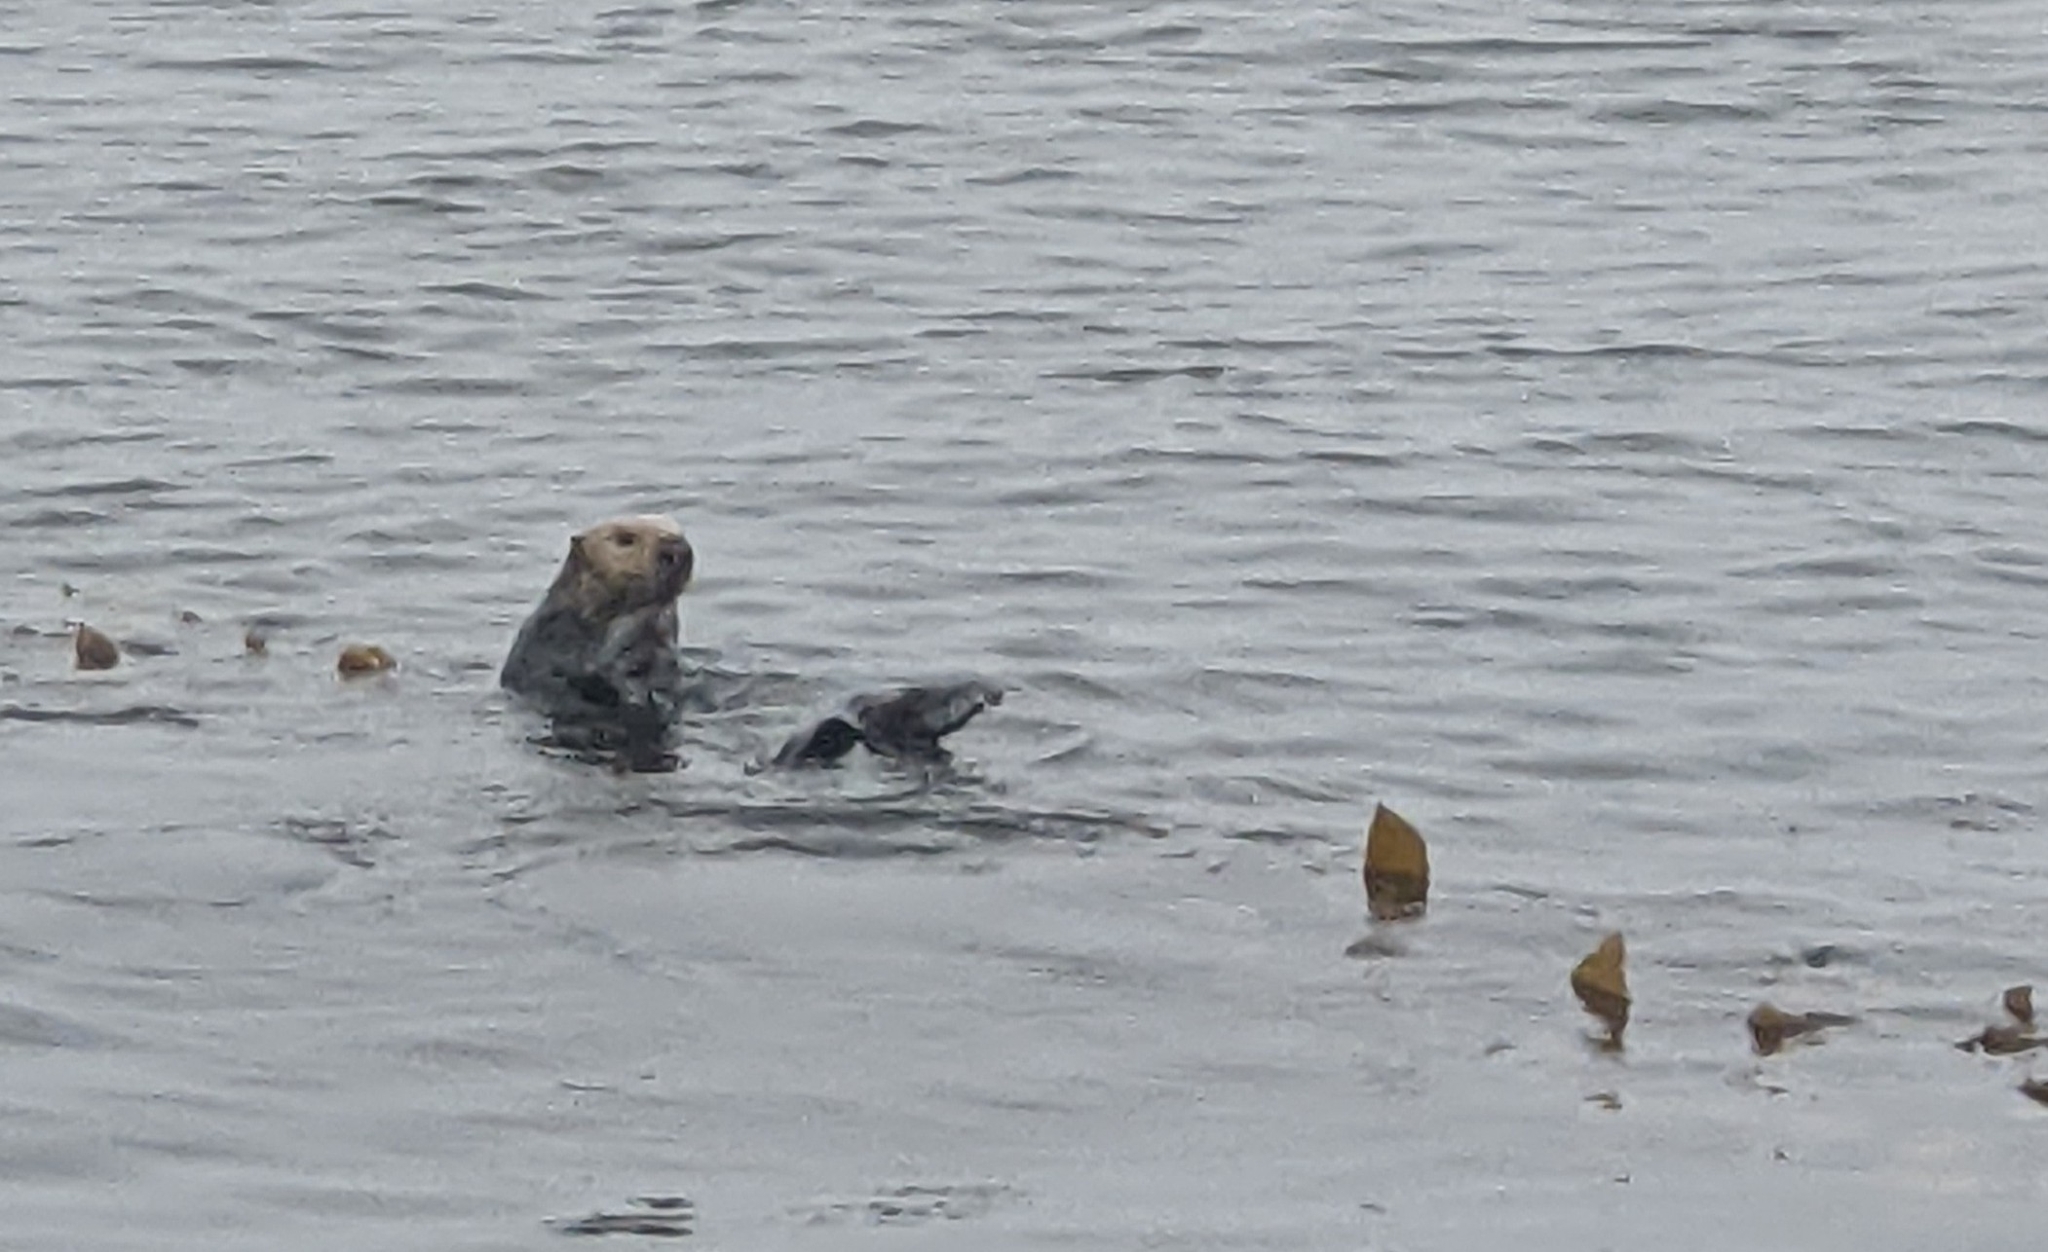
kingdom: Animalia
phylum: Chordata
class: Mammalia
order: Carnivora
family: Mustelidae
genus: Enhydra
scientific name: Enhydra lutris
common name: Sea otter
